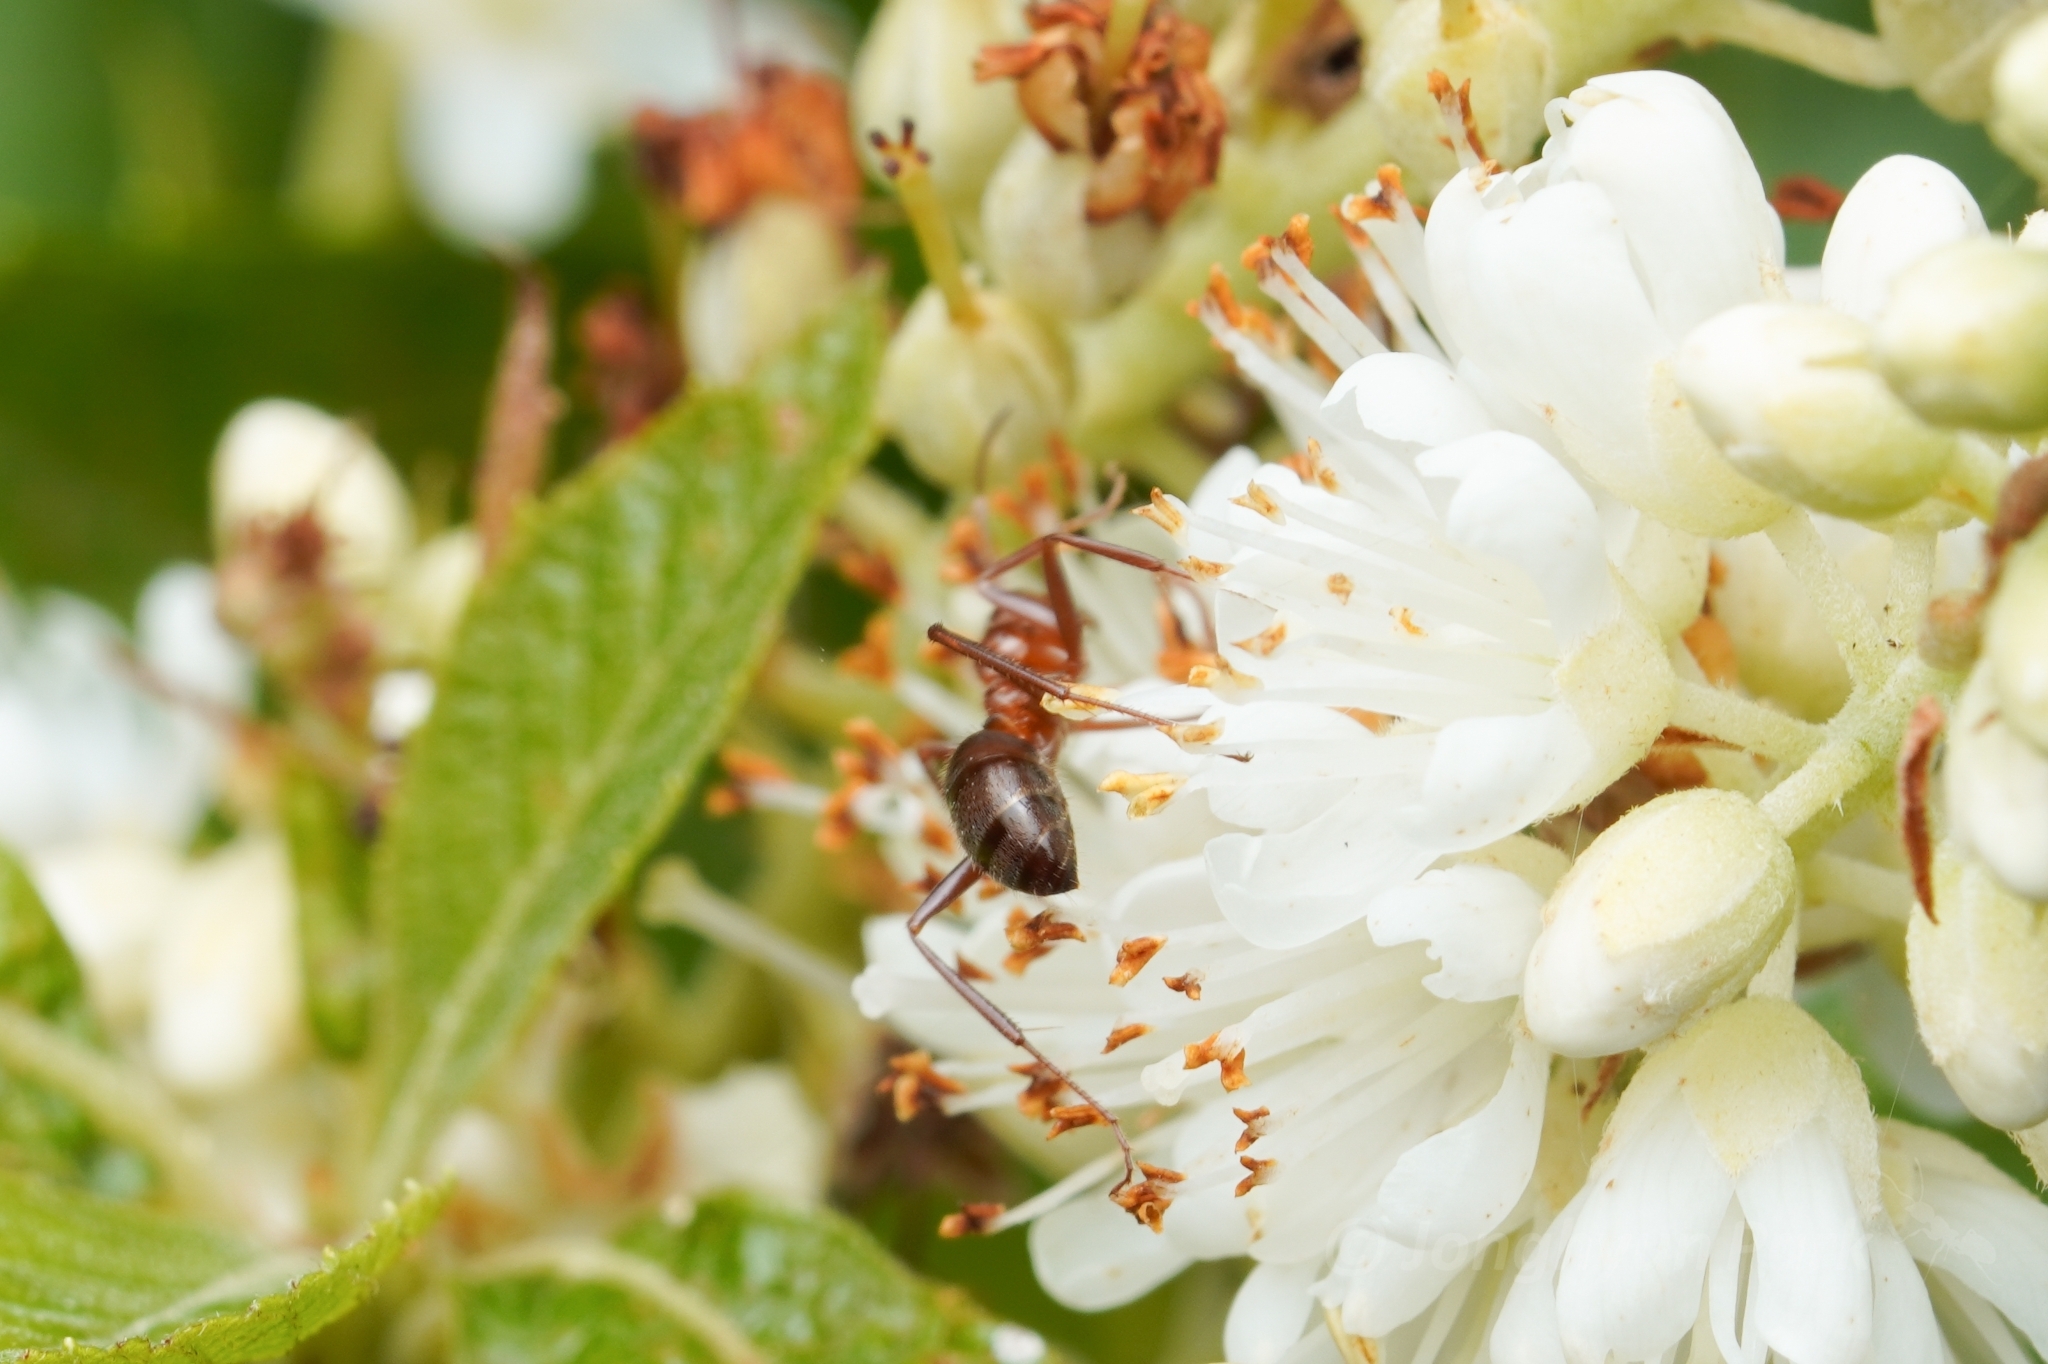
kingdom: Animalia
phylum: Arthropoda
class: Insecta
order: Hymenoptera
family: Formicidae
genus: Formica
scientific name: Formica dolosa
